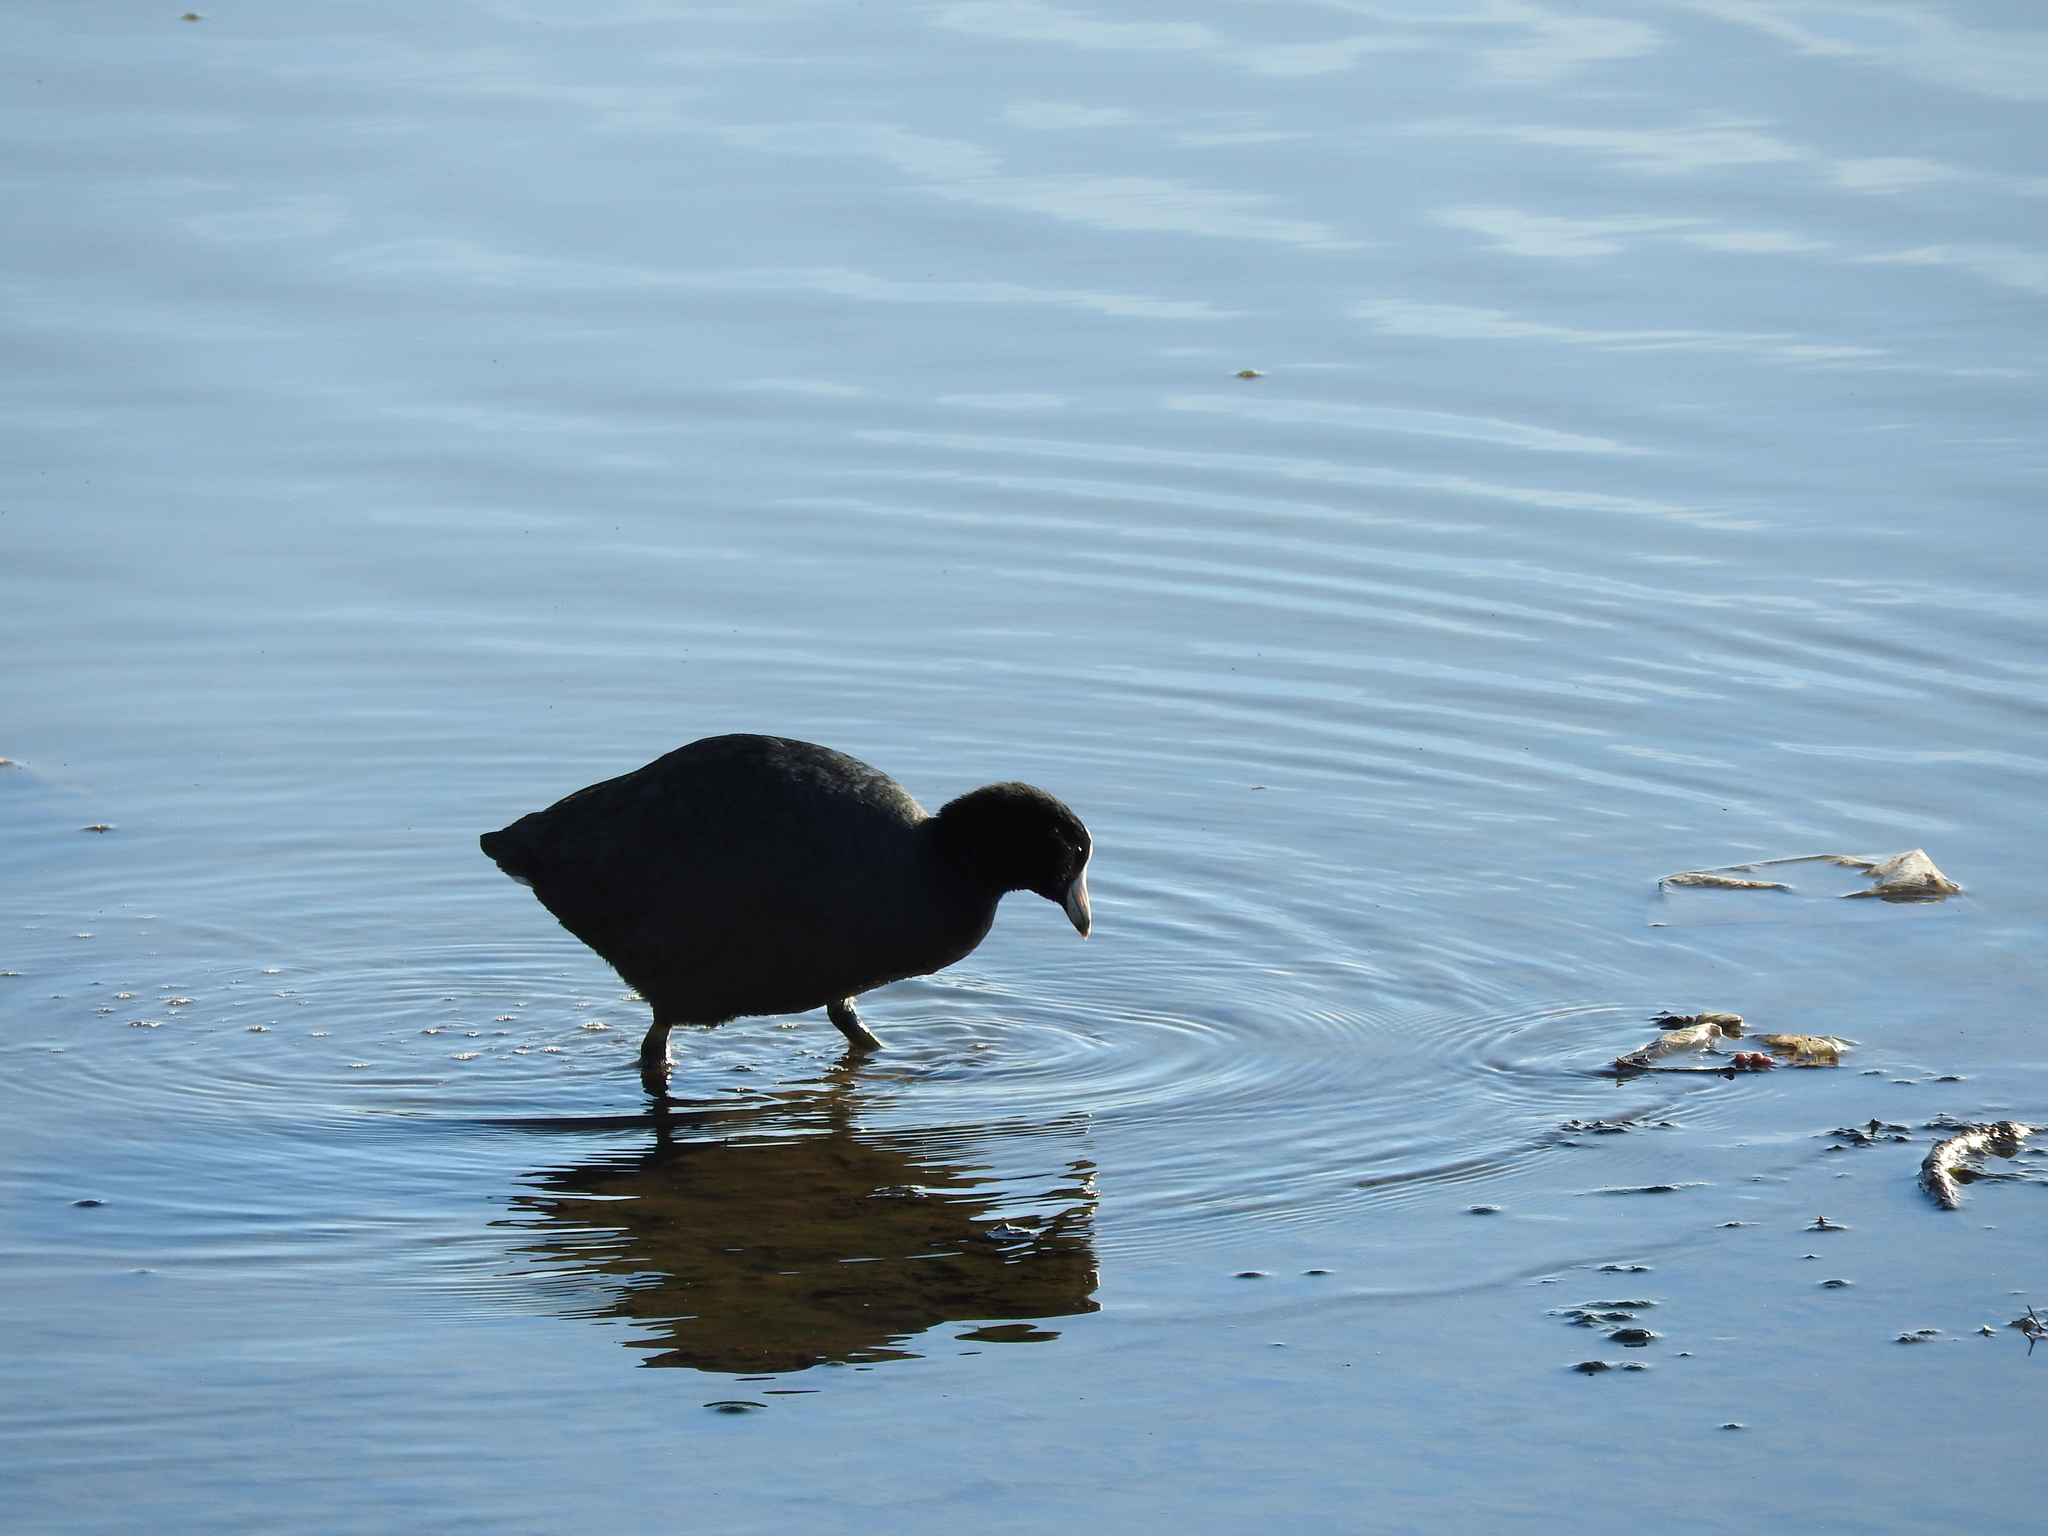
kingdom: Animalia
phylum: Chordata
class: Aves
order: Gruiformes
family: Rallidae
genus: Fulica
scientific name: Fulica americana
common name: American coot
